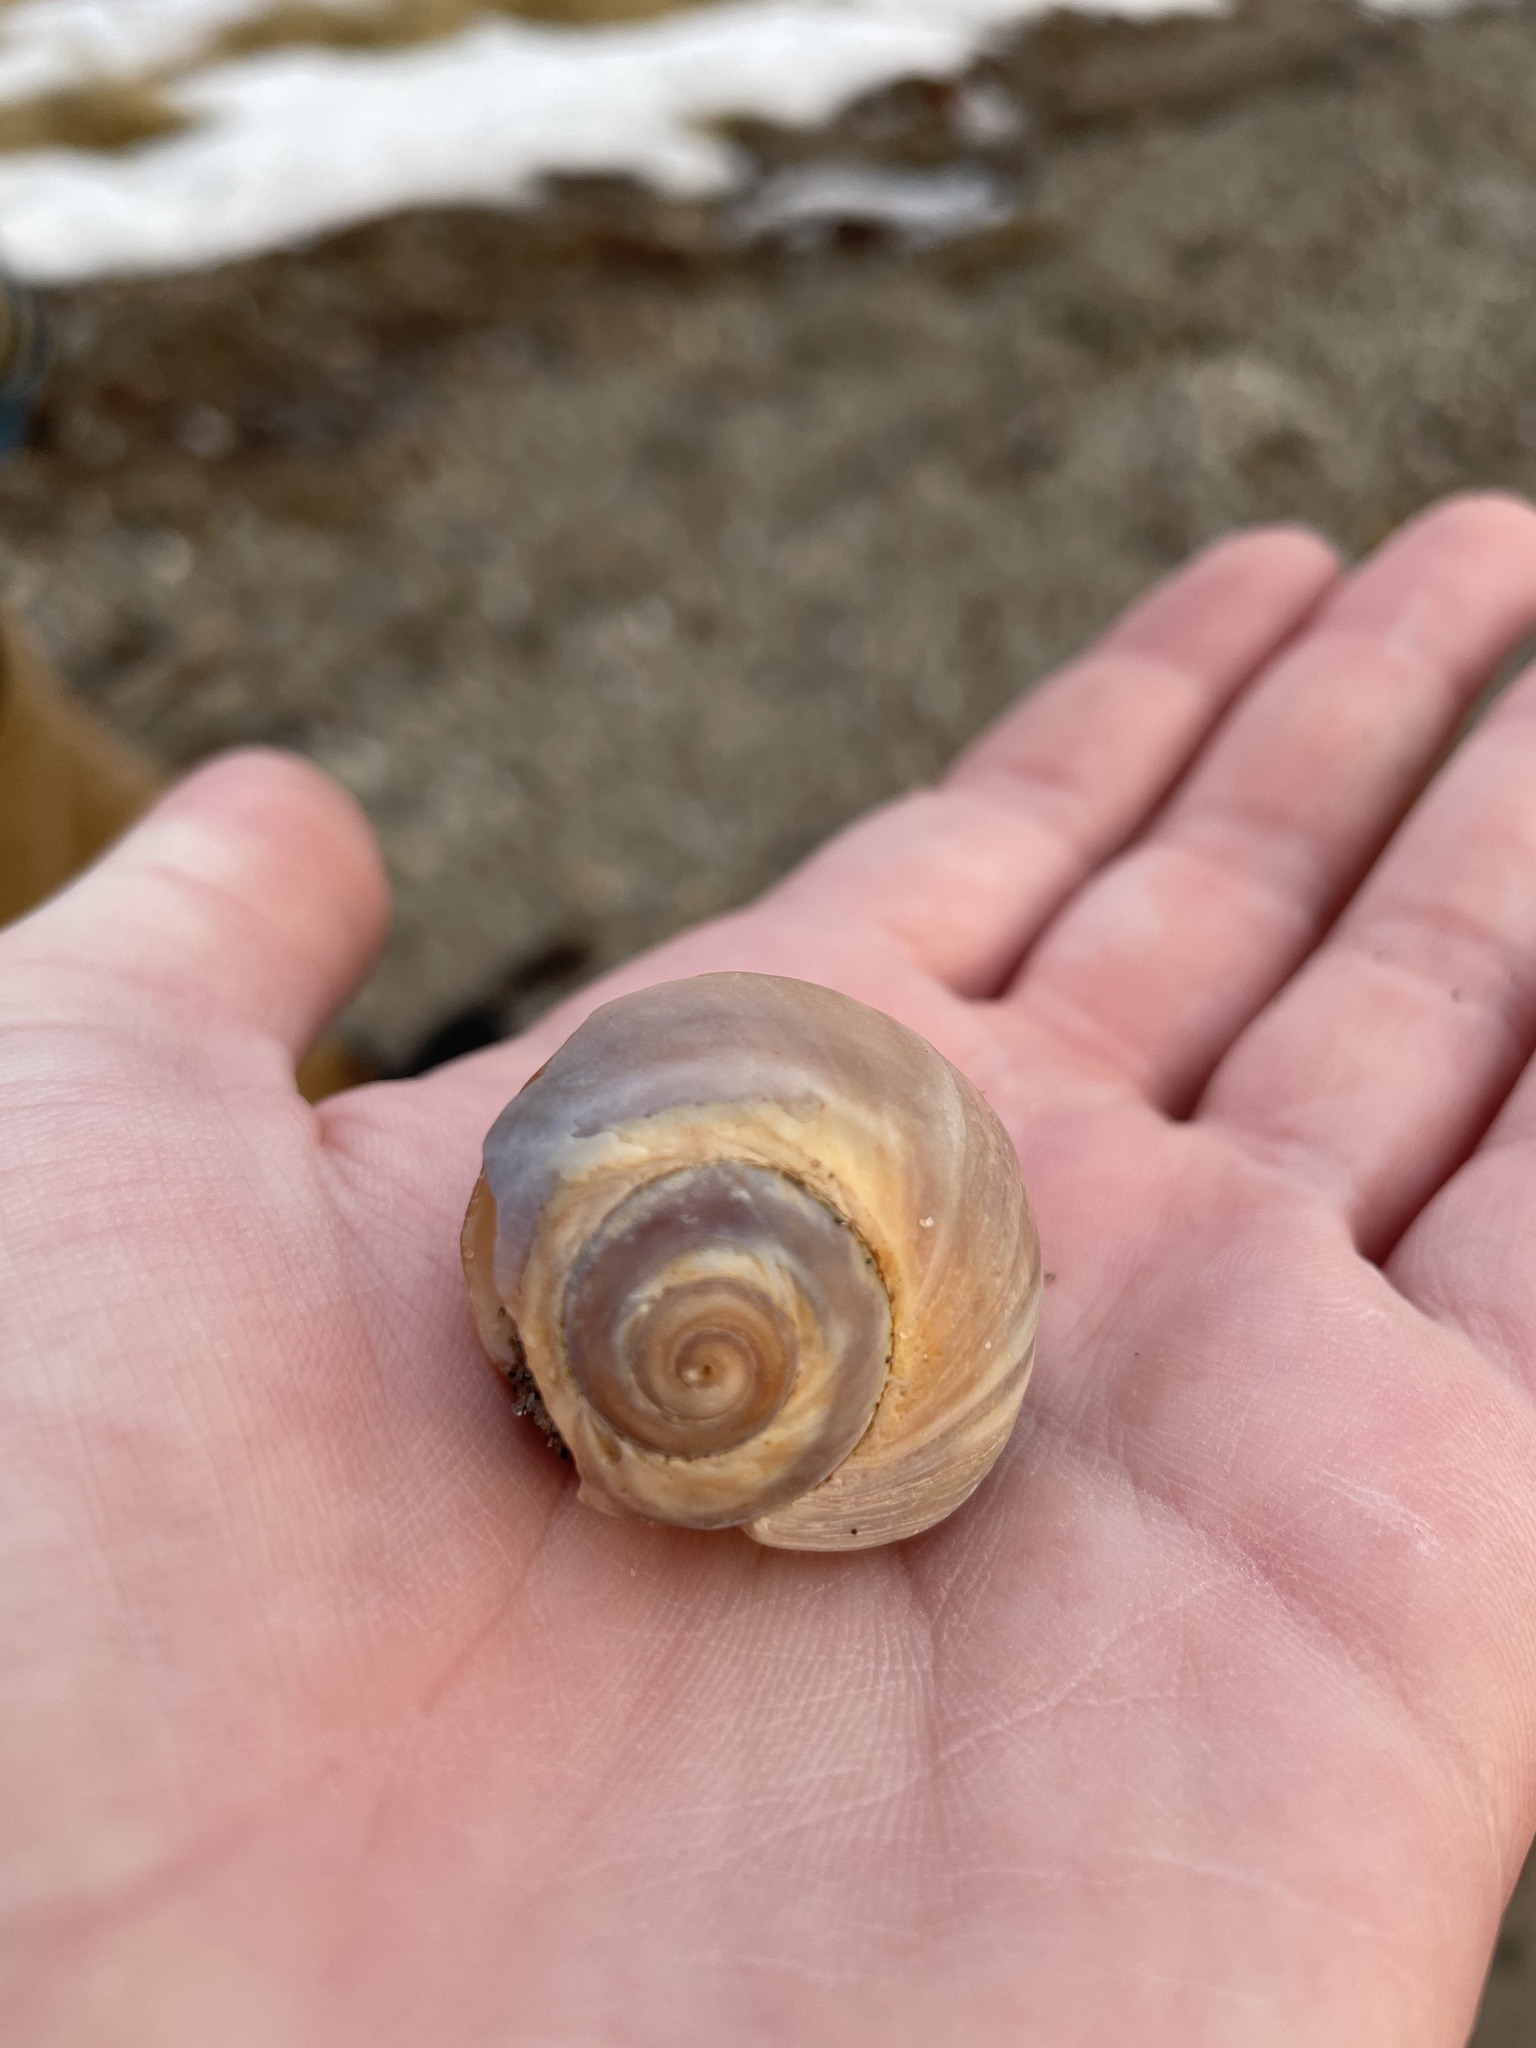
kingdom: Animalia
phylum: Mollusca
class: Gastropoda
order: Littorinimorpha
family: Naticidae
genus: Euspira
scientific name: Euspira heros
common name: Common northern moonsnail
